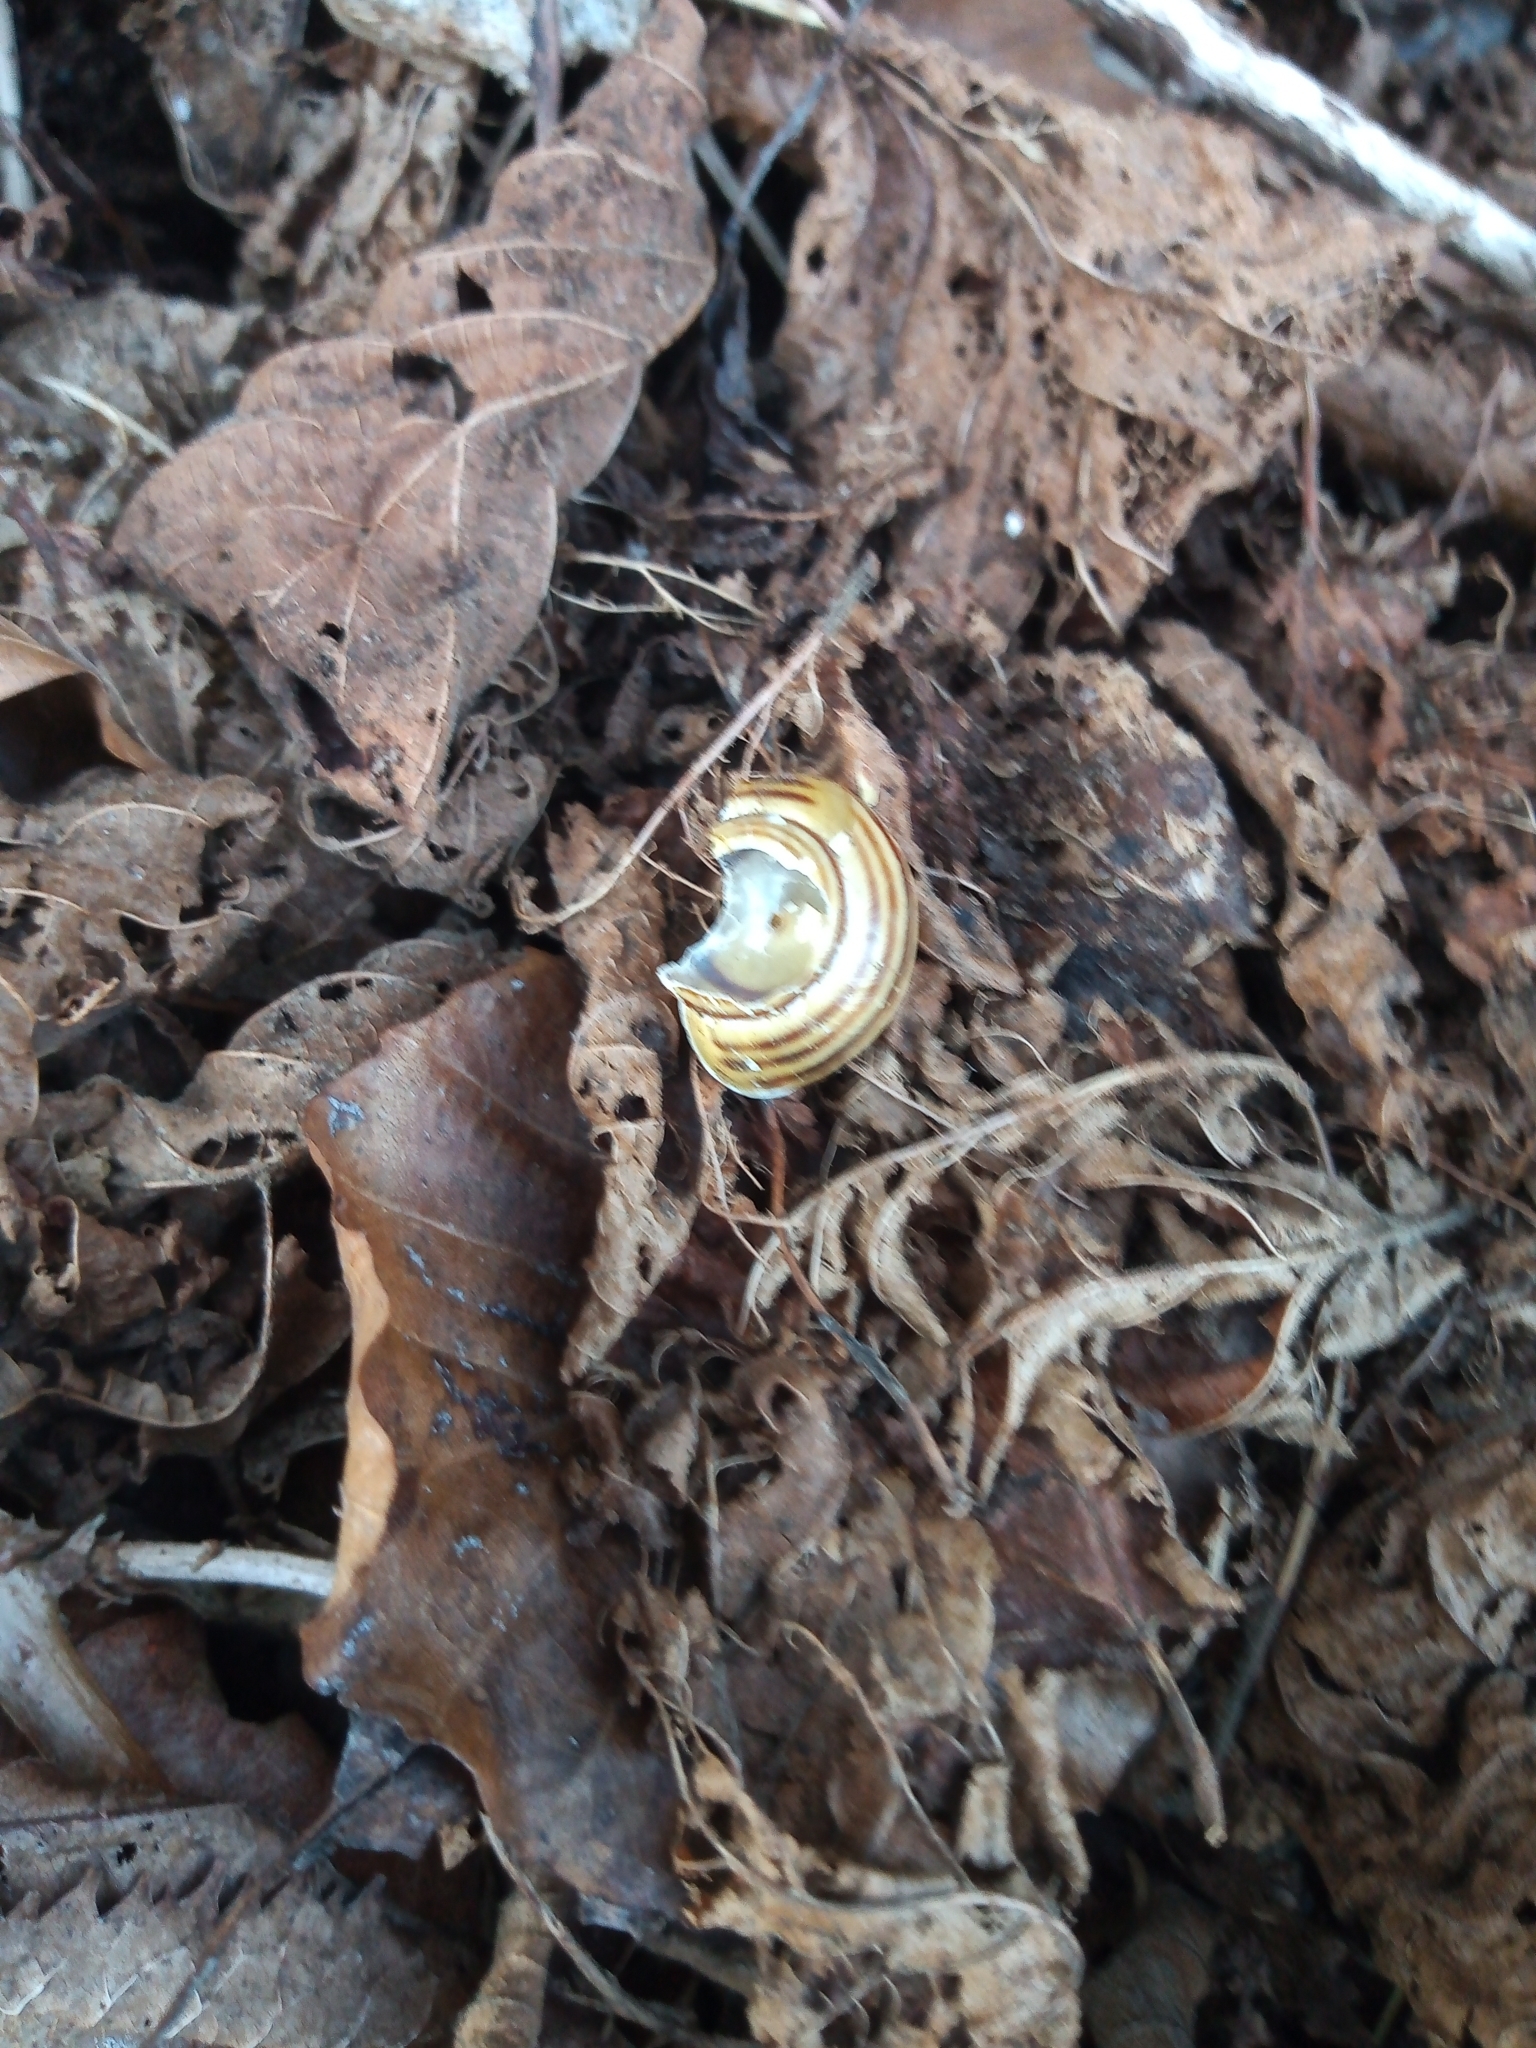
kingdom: Animalia
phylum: Mollusca
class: Gastropoda
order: Stylommatophora
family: Helicidae
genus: Cepaea
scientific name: Cepaea hortensis
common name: White-lip gardensnail
